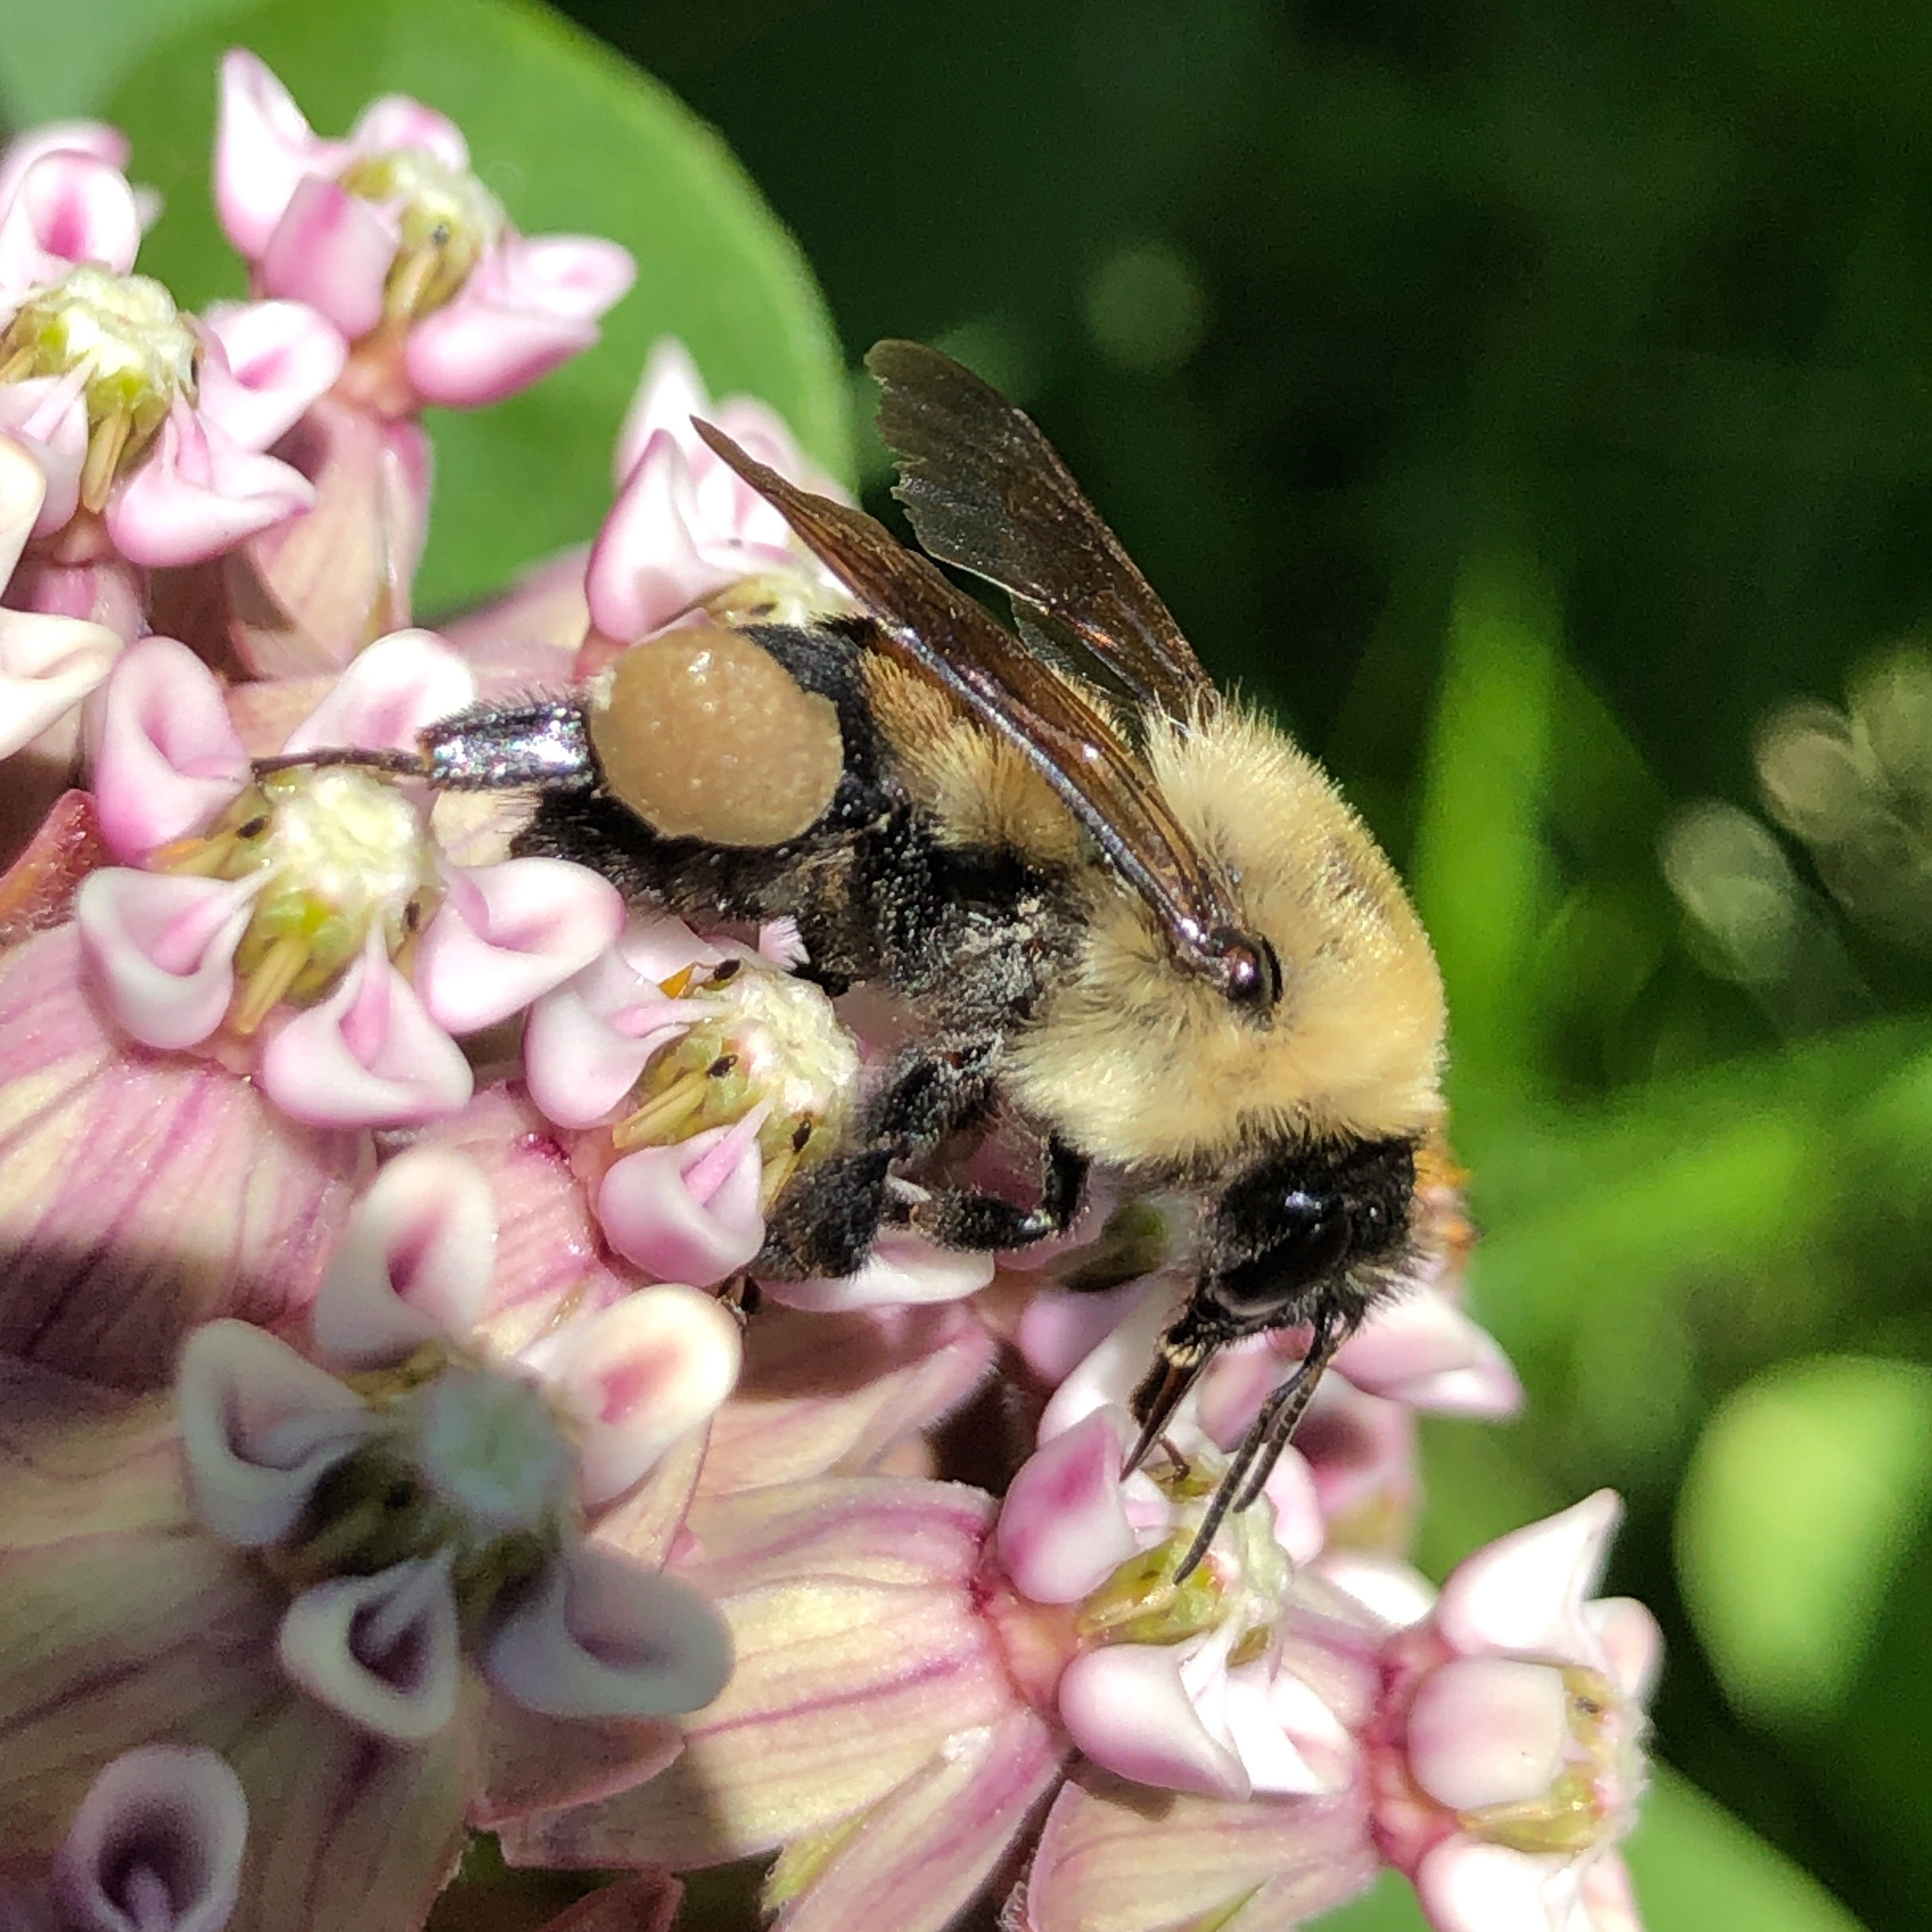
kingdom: Animalia
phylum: Arthropoda
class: Insecta
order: Hymenoptera
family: Apidae
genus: Bombus
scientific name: Bombus griseocollis
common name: Brown-belted bumble bee
